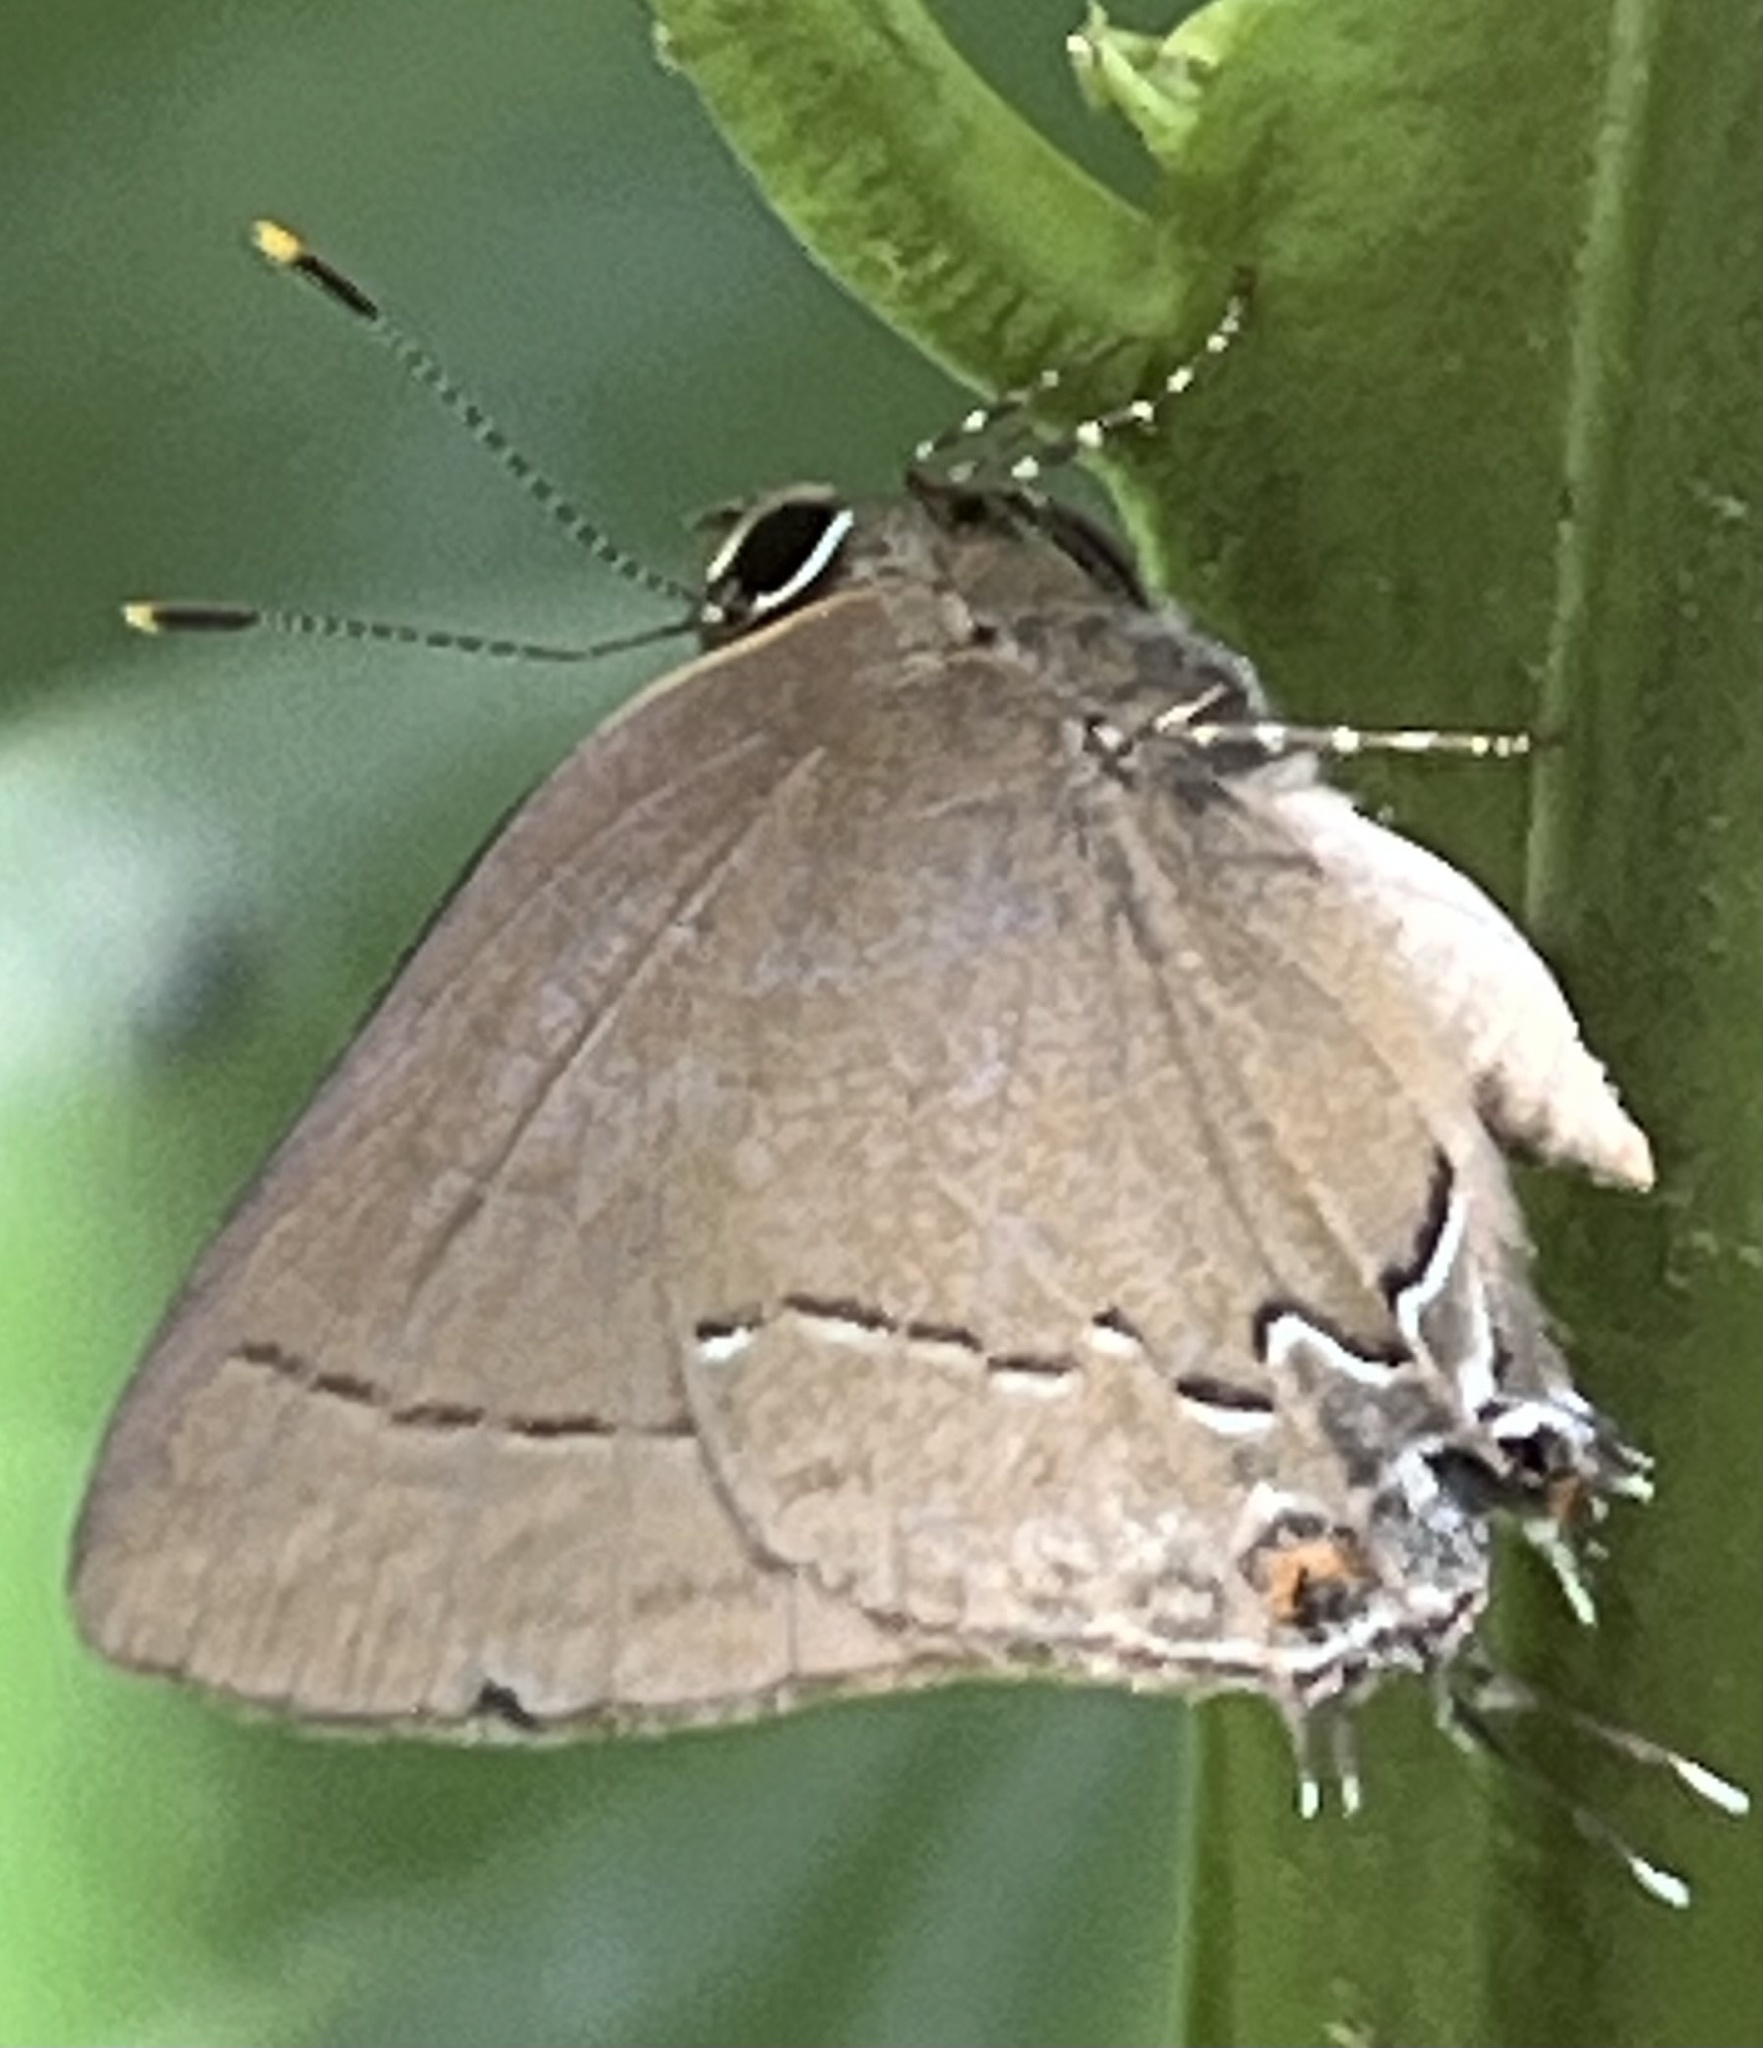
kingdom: Animalia
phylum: Arthropoda
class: Insecta
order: Lepidoptera
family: Lycaenidae
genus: Ziegleria
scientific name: Ziegleria hesperitis
